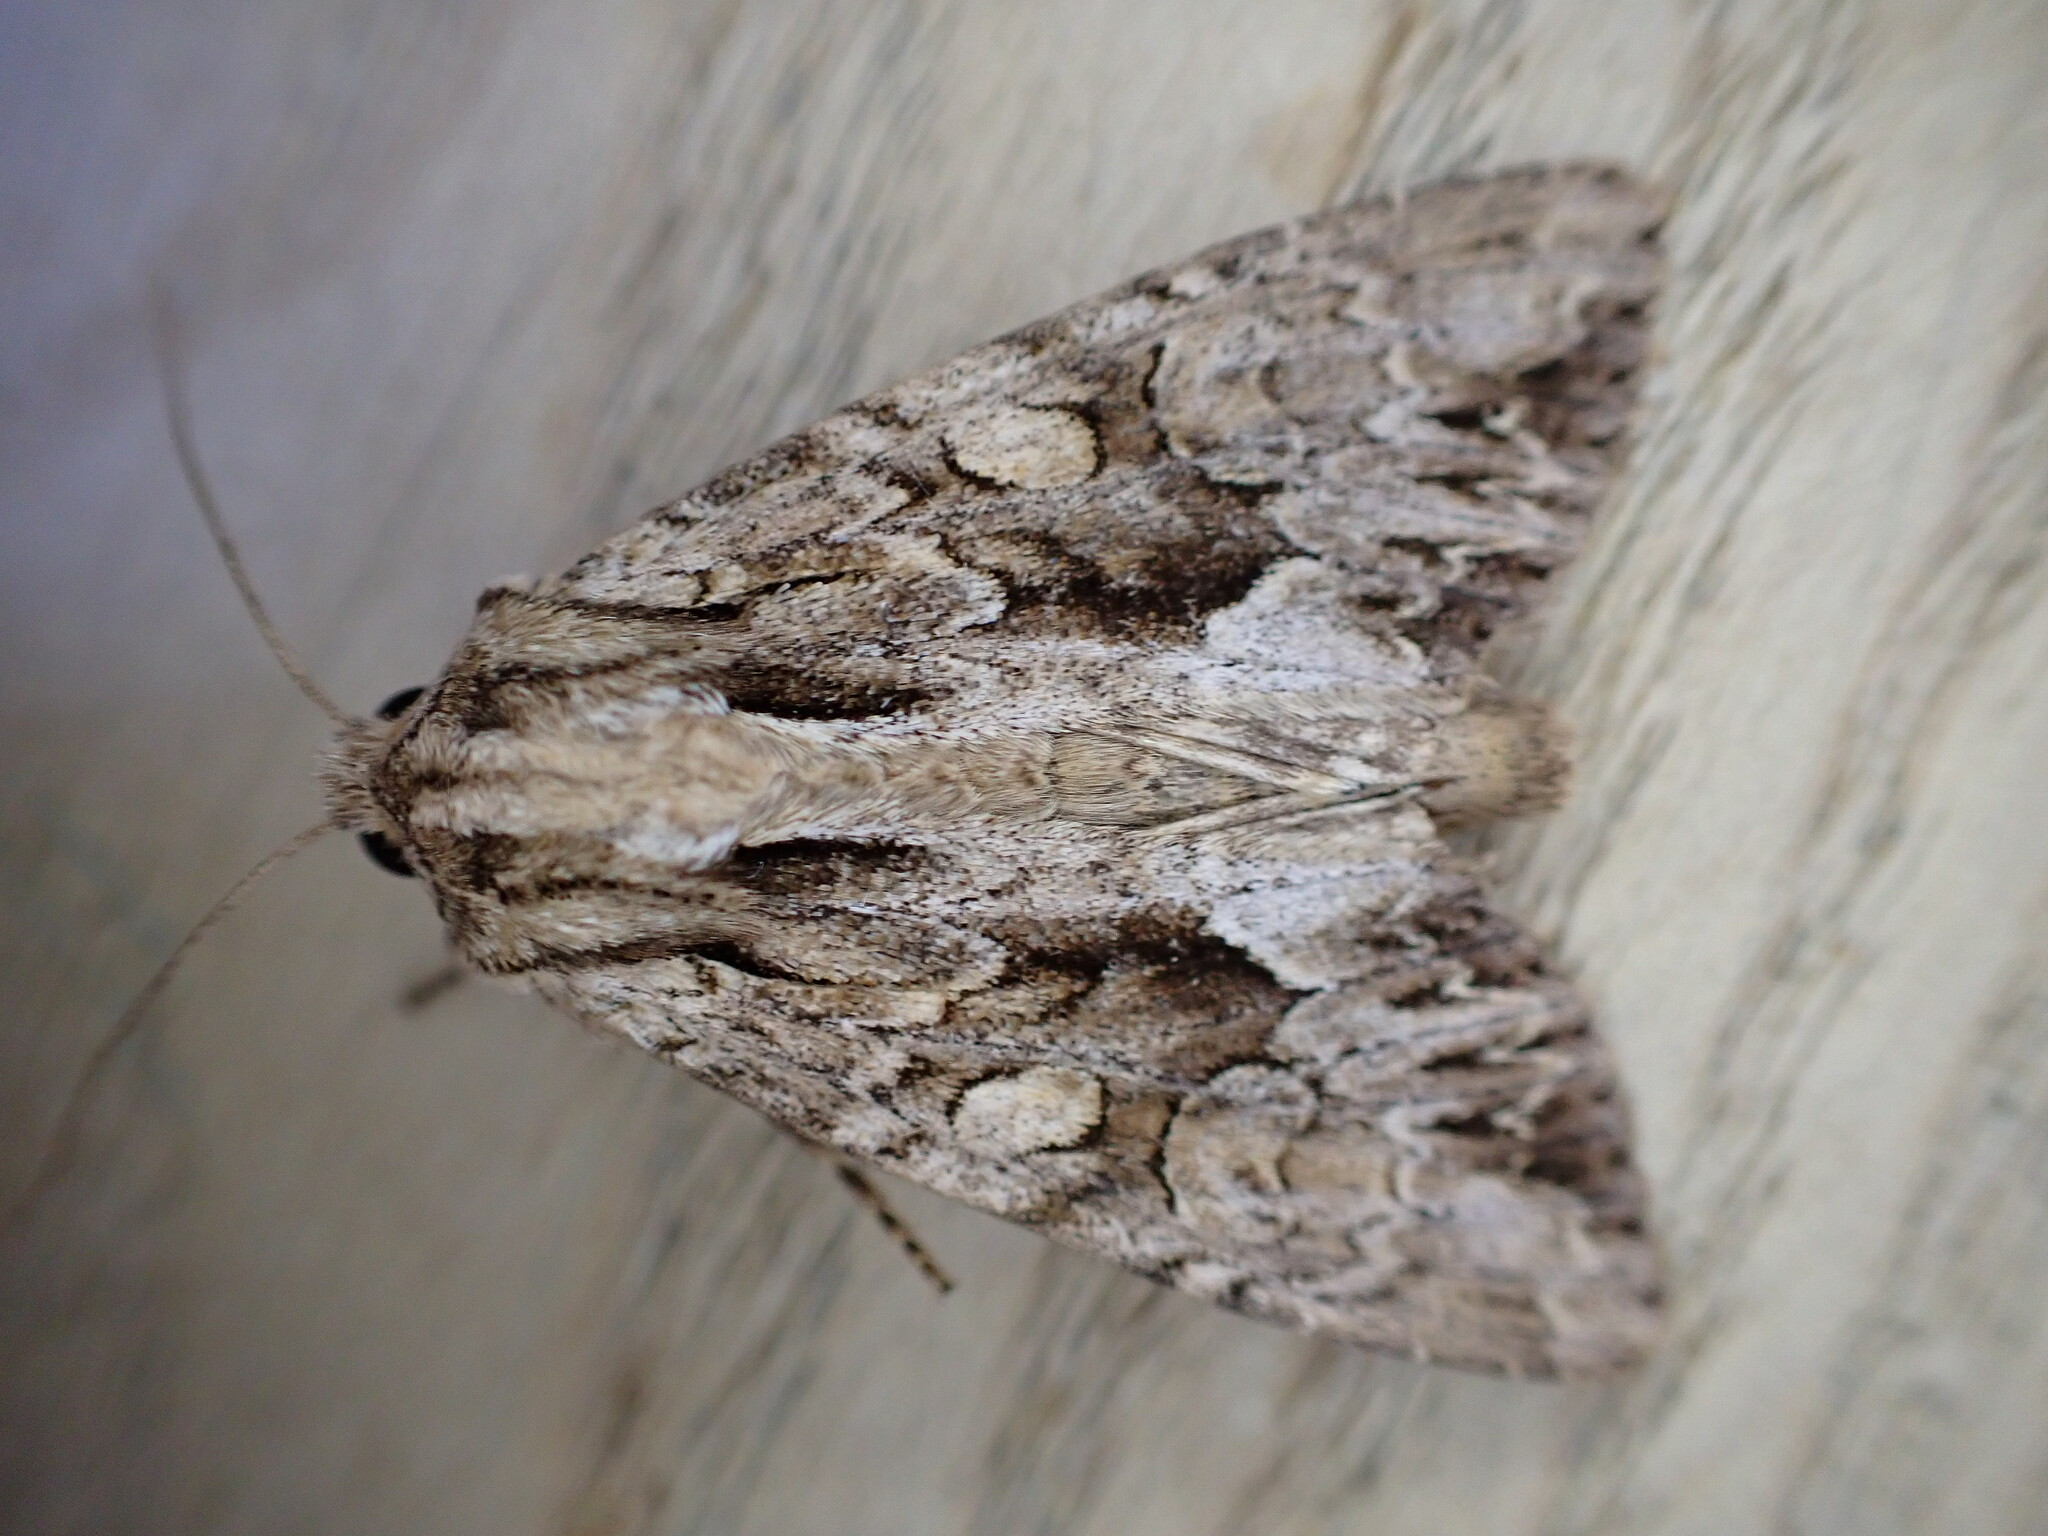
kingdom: Animalia
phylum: Arthropoda
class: Insecta
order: Lepidoptera
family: Noctuidae
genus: Apamea
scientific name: Apamea monoglypha
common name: Dark arches
